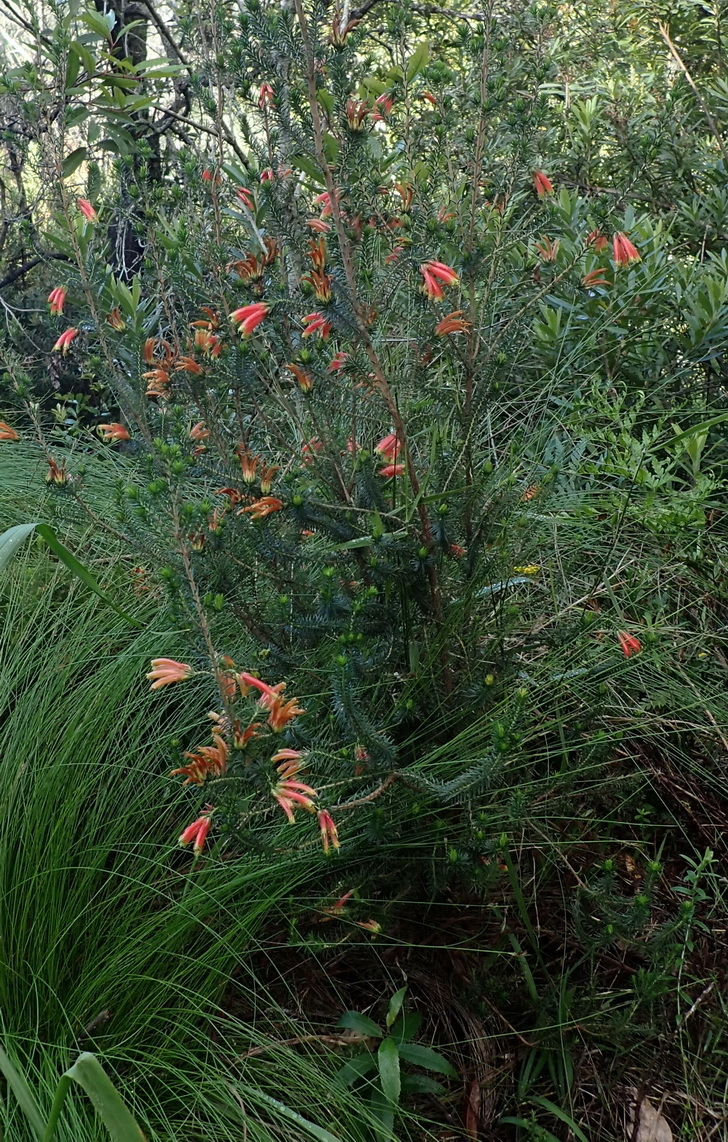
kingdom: Plantae
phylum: Tracheophyta
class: Magnoliopsida
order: Ericales
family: Ericaceae
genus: Erica
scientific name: Erica unicolor
